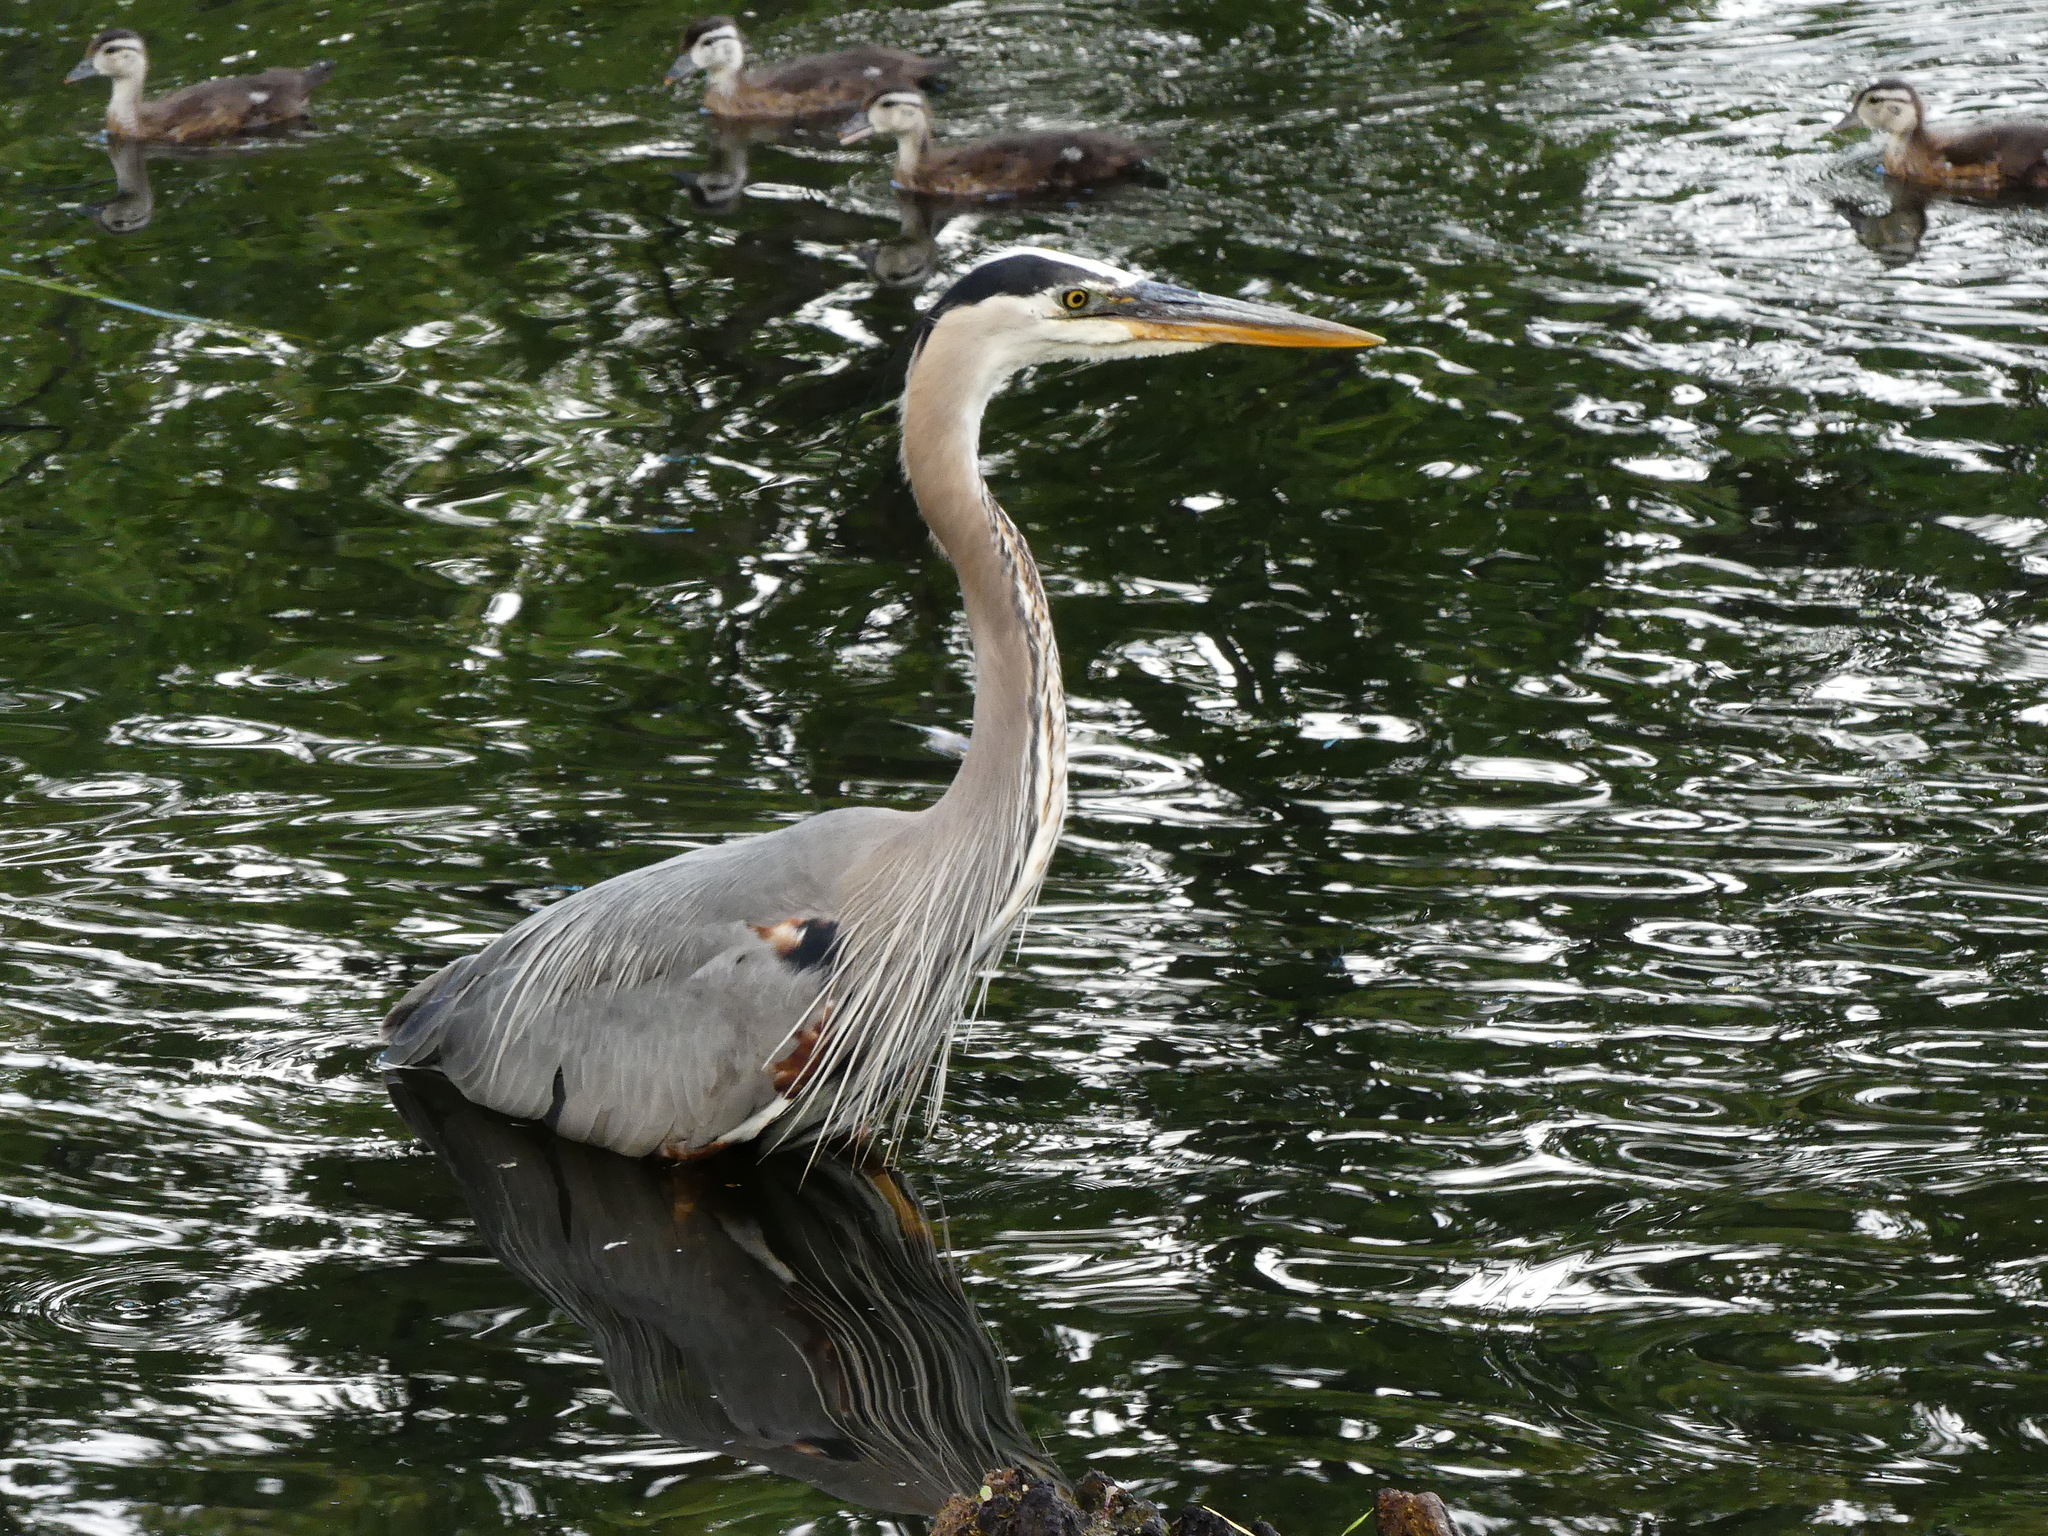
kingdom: Animalia
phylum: Chordata
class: Aves
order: Pelecaniformes
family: Ardeidae
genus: Ardea
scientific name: Ardea herodias
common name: Great blue heron
